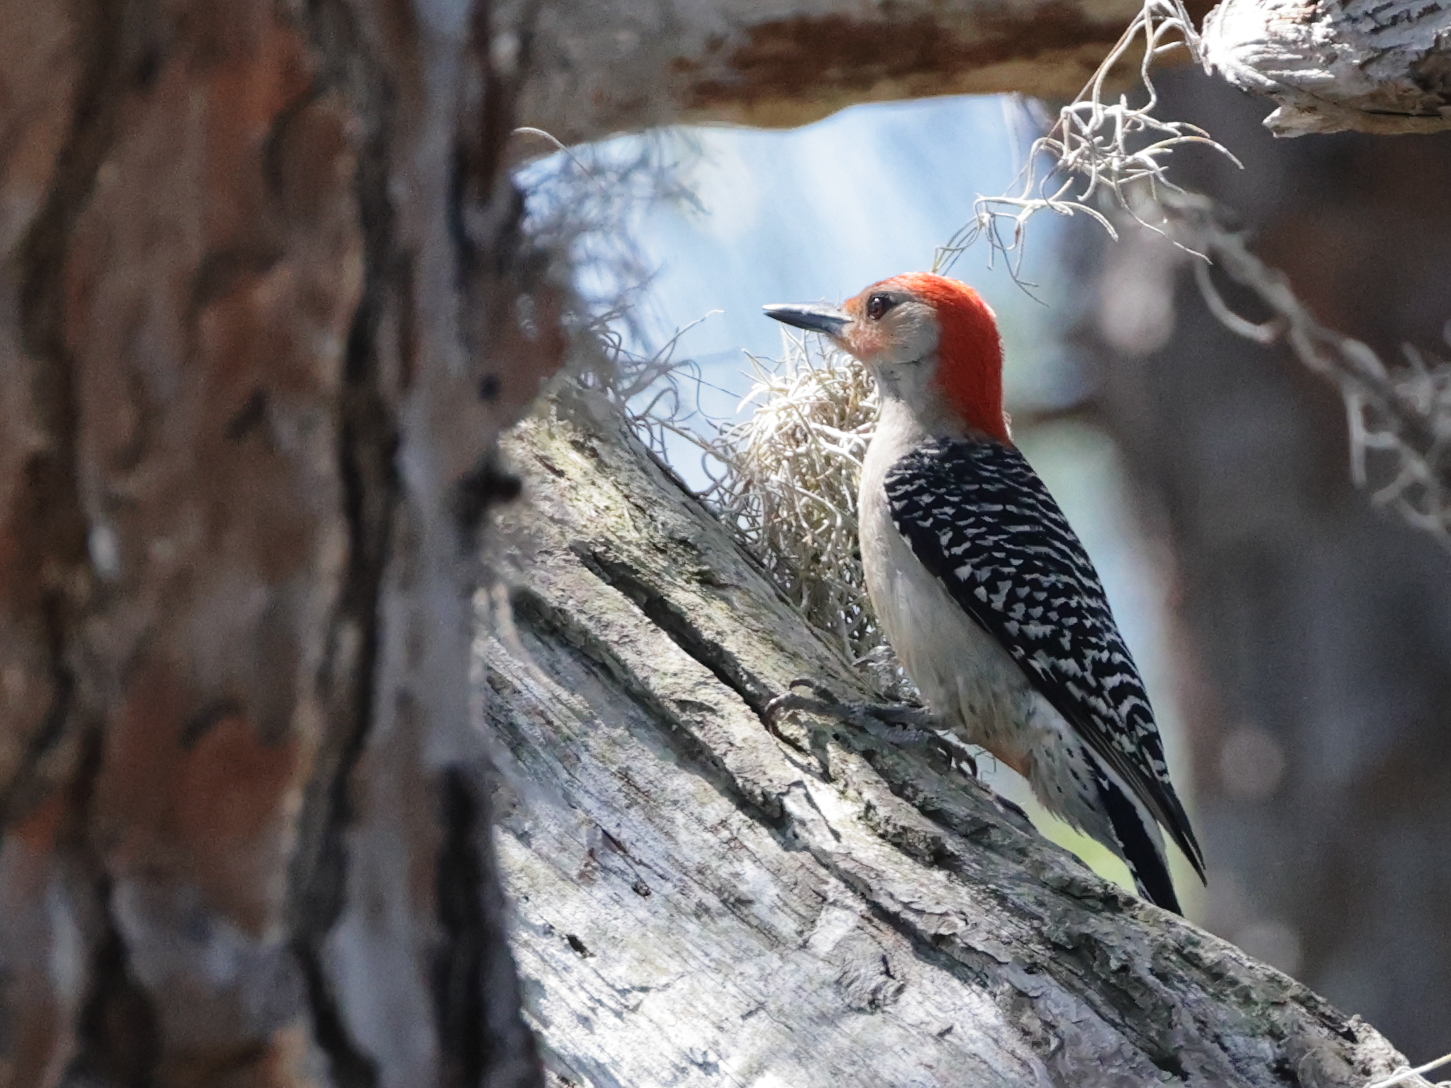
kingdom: Animalia
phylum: Chordata
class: Aves
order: Piciformes
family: Picidae
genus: Melanerpes
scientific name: Melanerpes carolinus
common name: Red-bellied woodpecker
